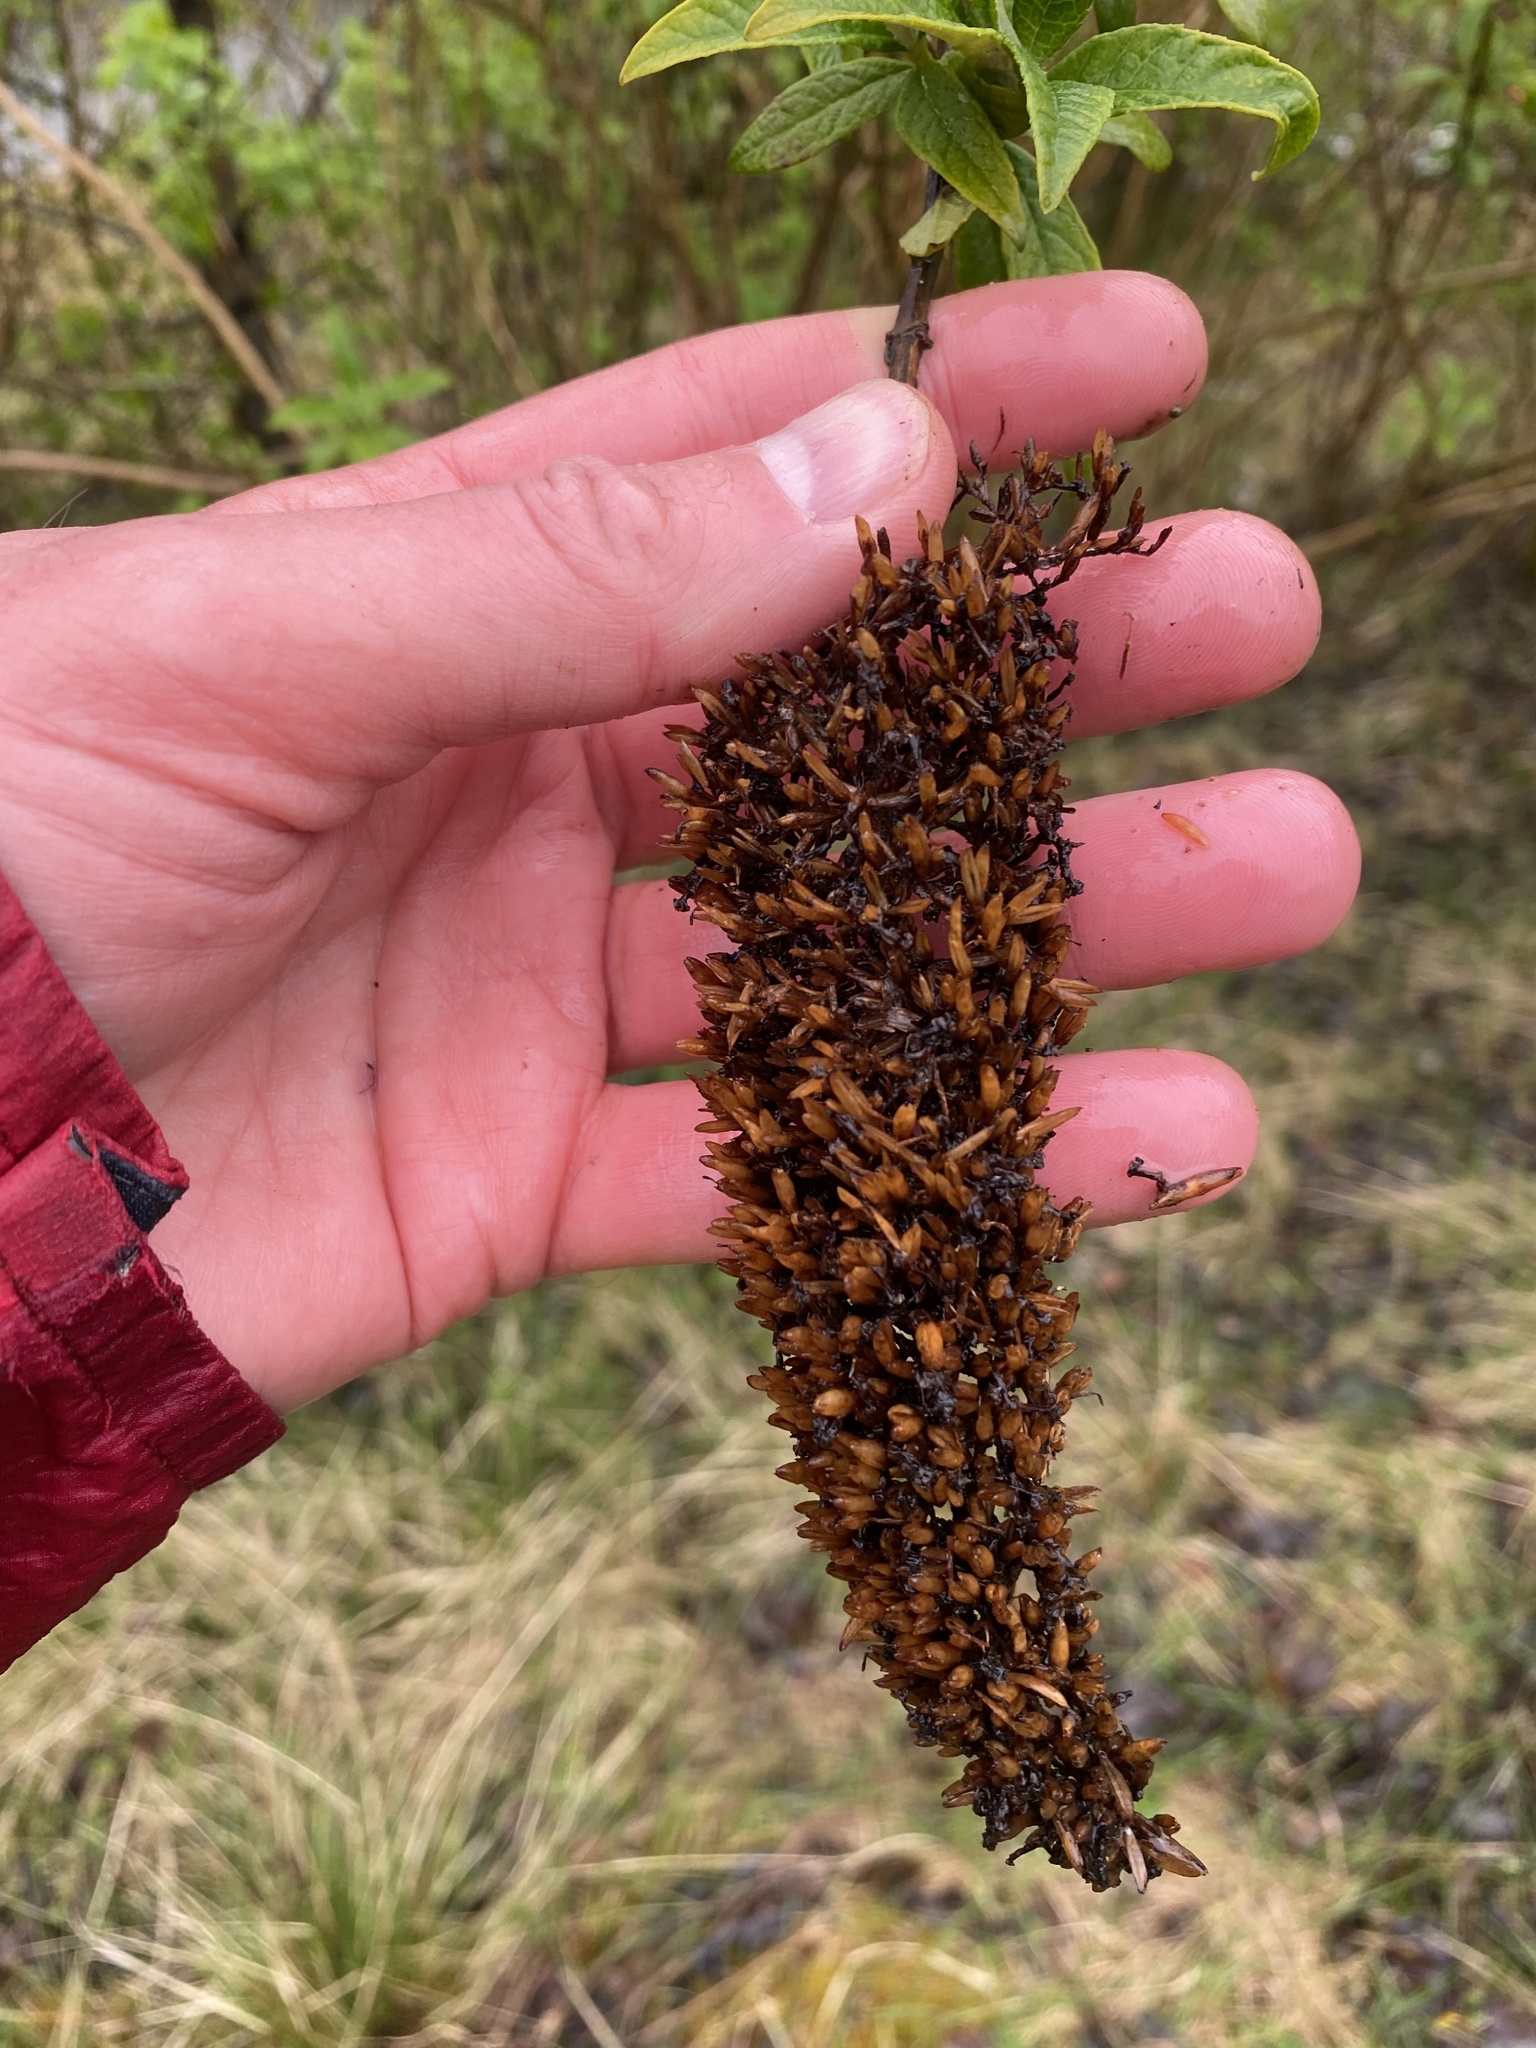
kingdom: Plantae
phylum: Tracheophyta
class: Magnoliopsida
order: Lamiales
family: Scrophulariaceae
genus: Buddleja
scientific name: Buddleja davidii
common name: Butterfly-bush
